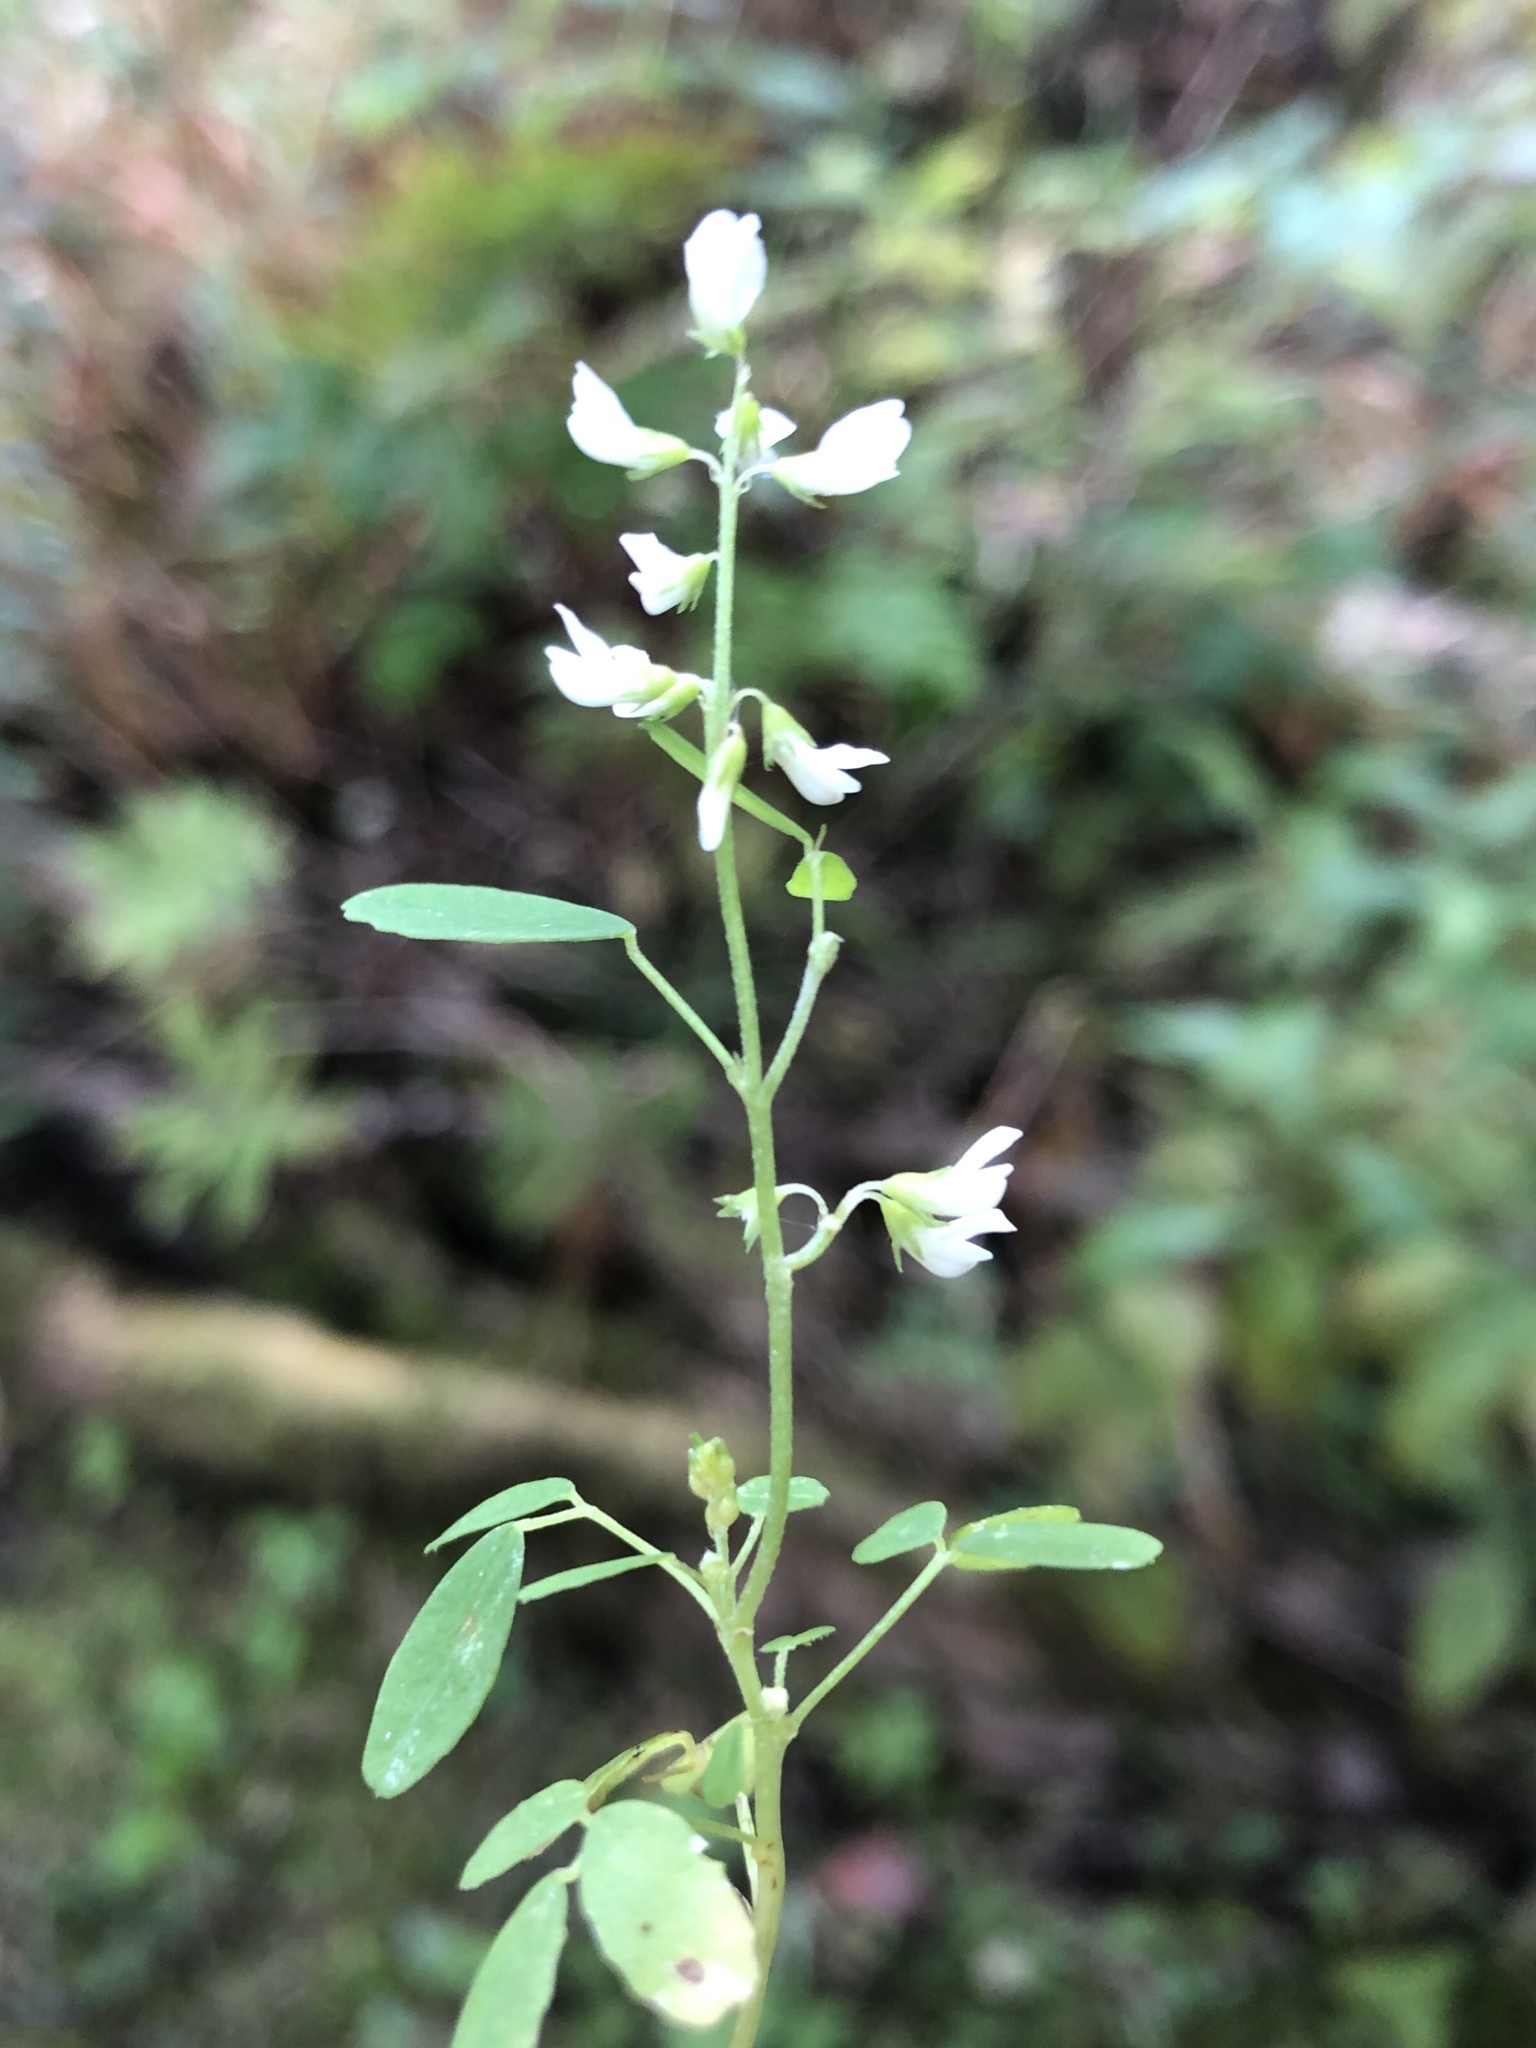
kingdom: Plantae
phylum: Tracheophyta
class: Magnoliopsida
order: Fabales
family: Fabaceae
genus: Melilotus
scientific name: Melilotus albus
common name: White melilot
